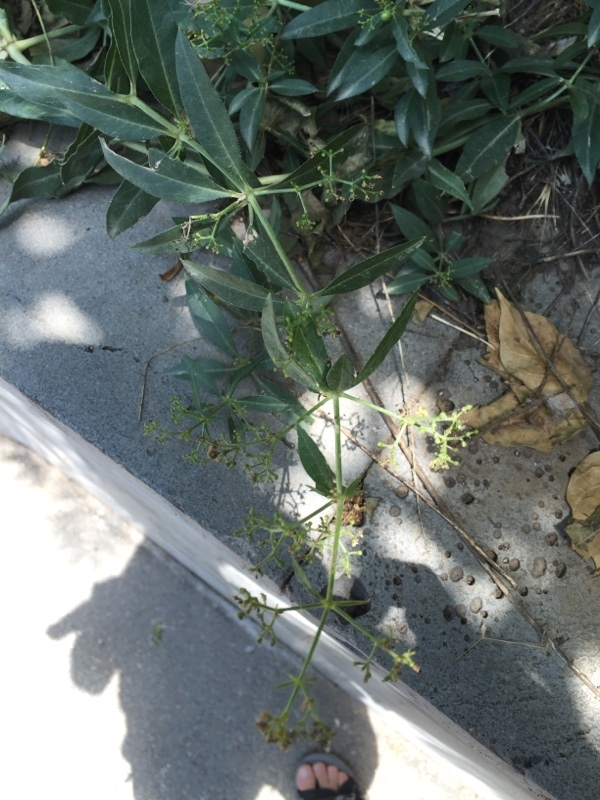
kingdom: Plantae
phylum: Tracheophyta
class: Magnoliopsida
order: Gentianales
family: Rubiaceae
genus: Rubia
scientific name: Rubia tinctorum
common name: Dyer's madder
